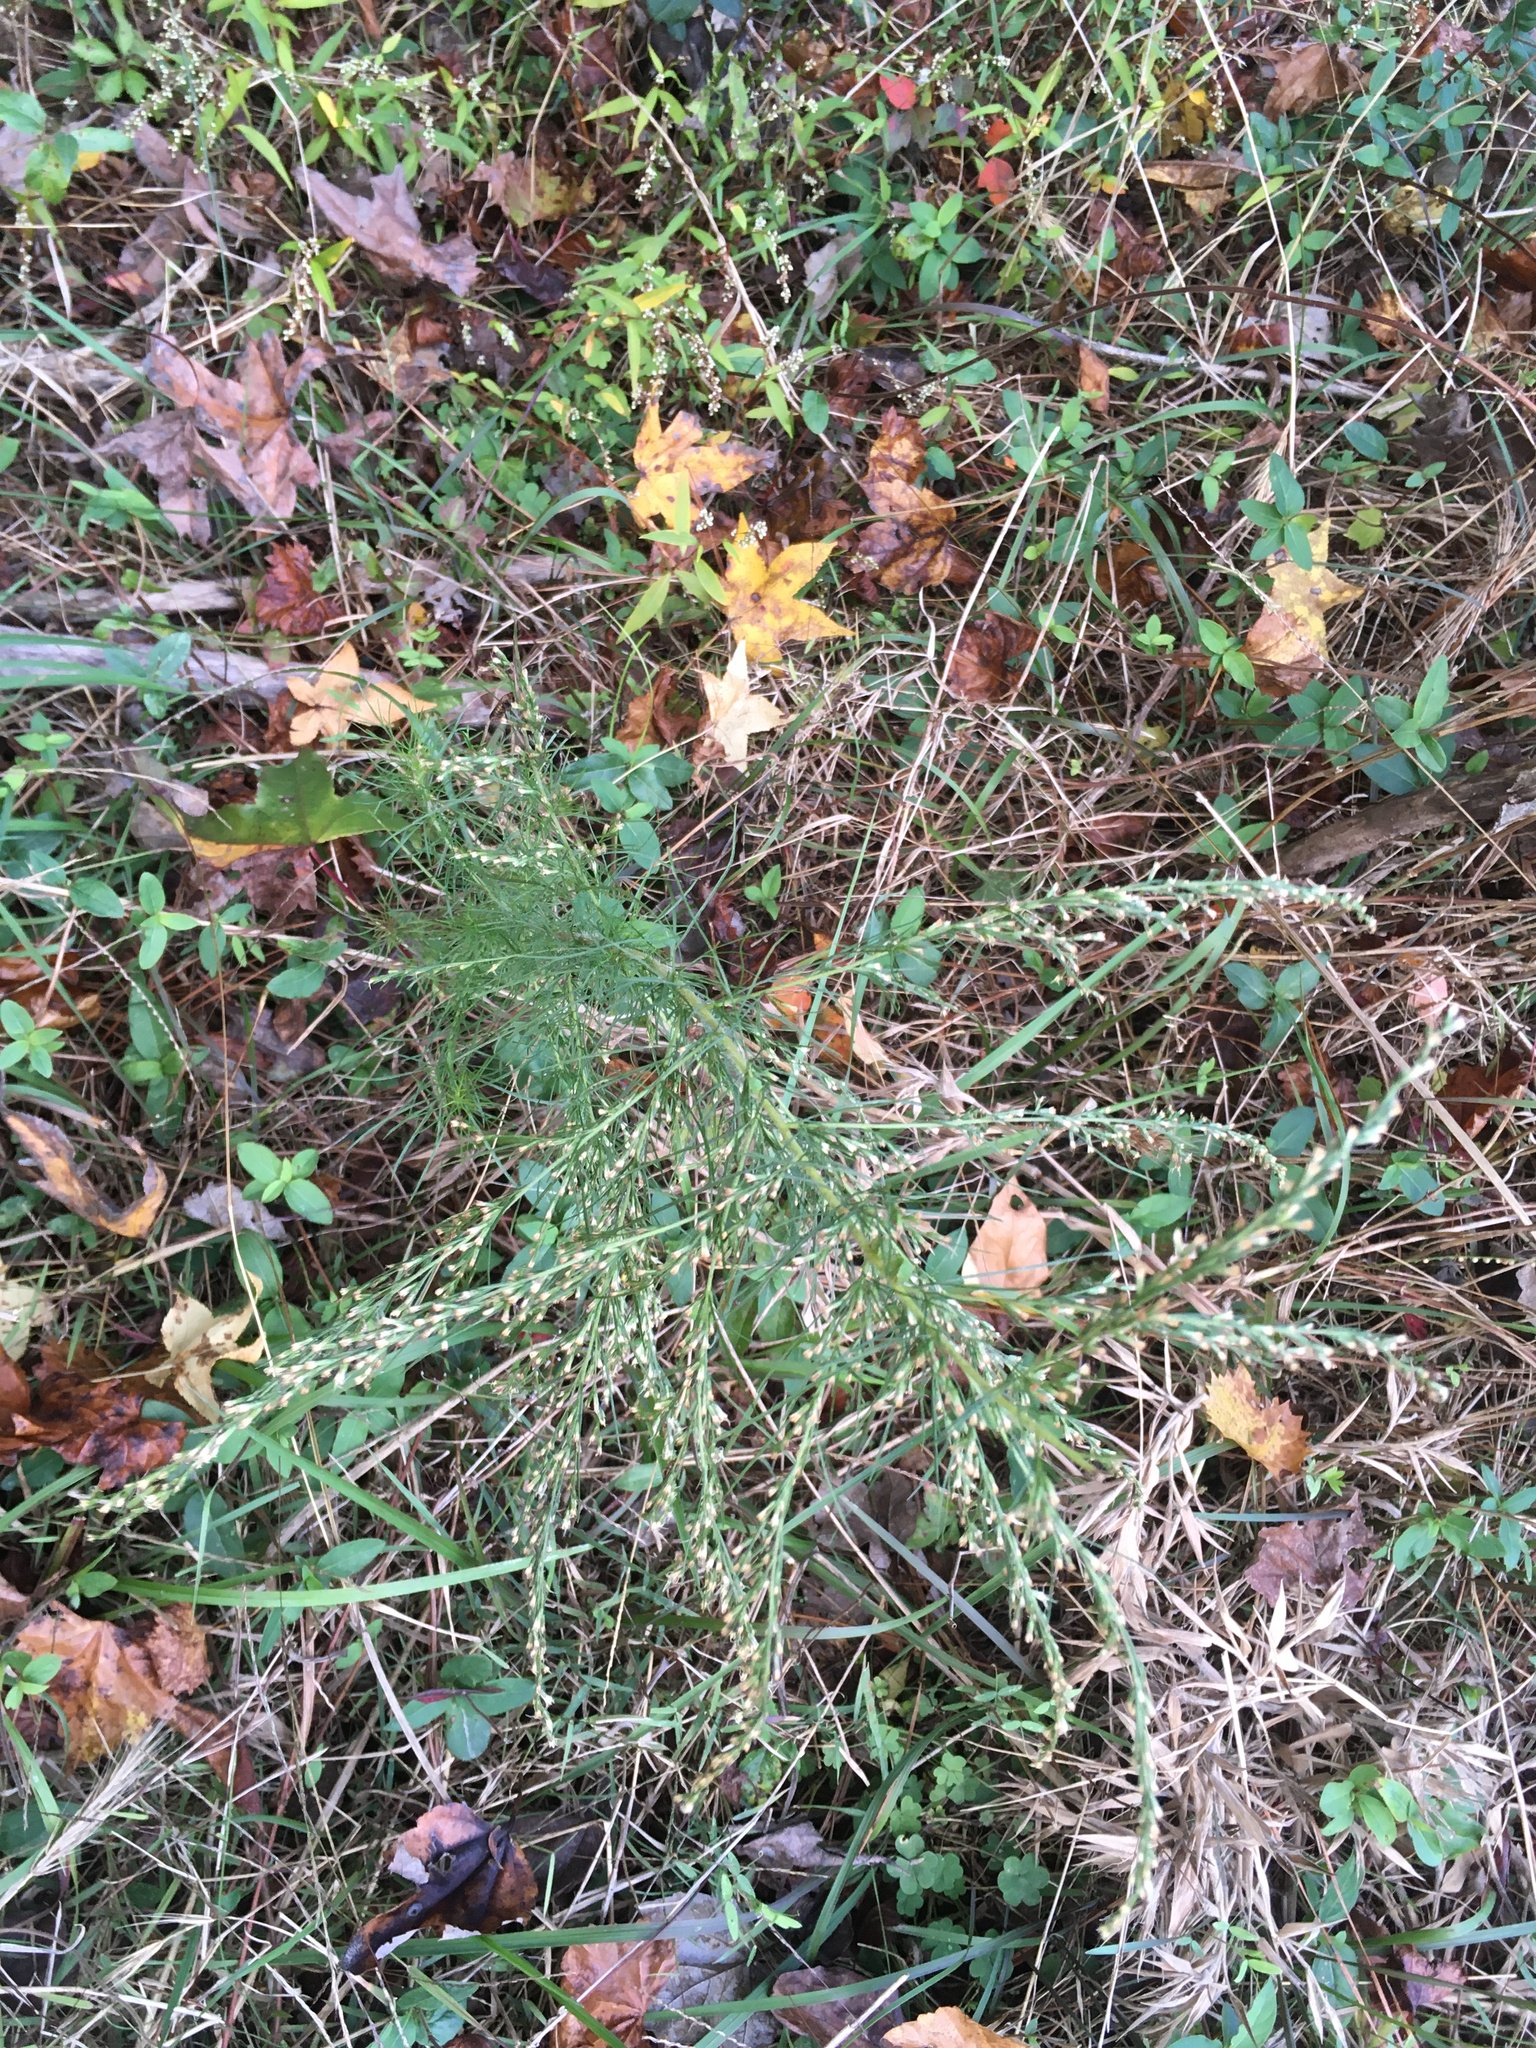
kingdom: Plantae
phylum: Tracheophyta
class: Magnoliopsida
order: Asterales
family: Asteraceae
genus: Eupatorium
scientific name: Eupatorium capillifolium
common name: Dog-fennel
